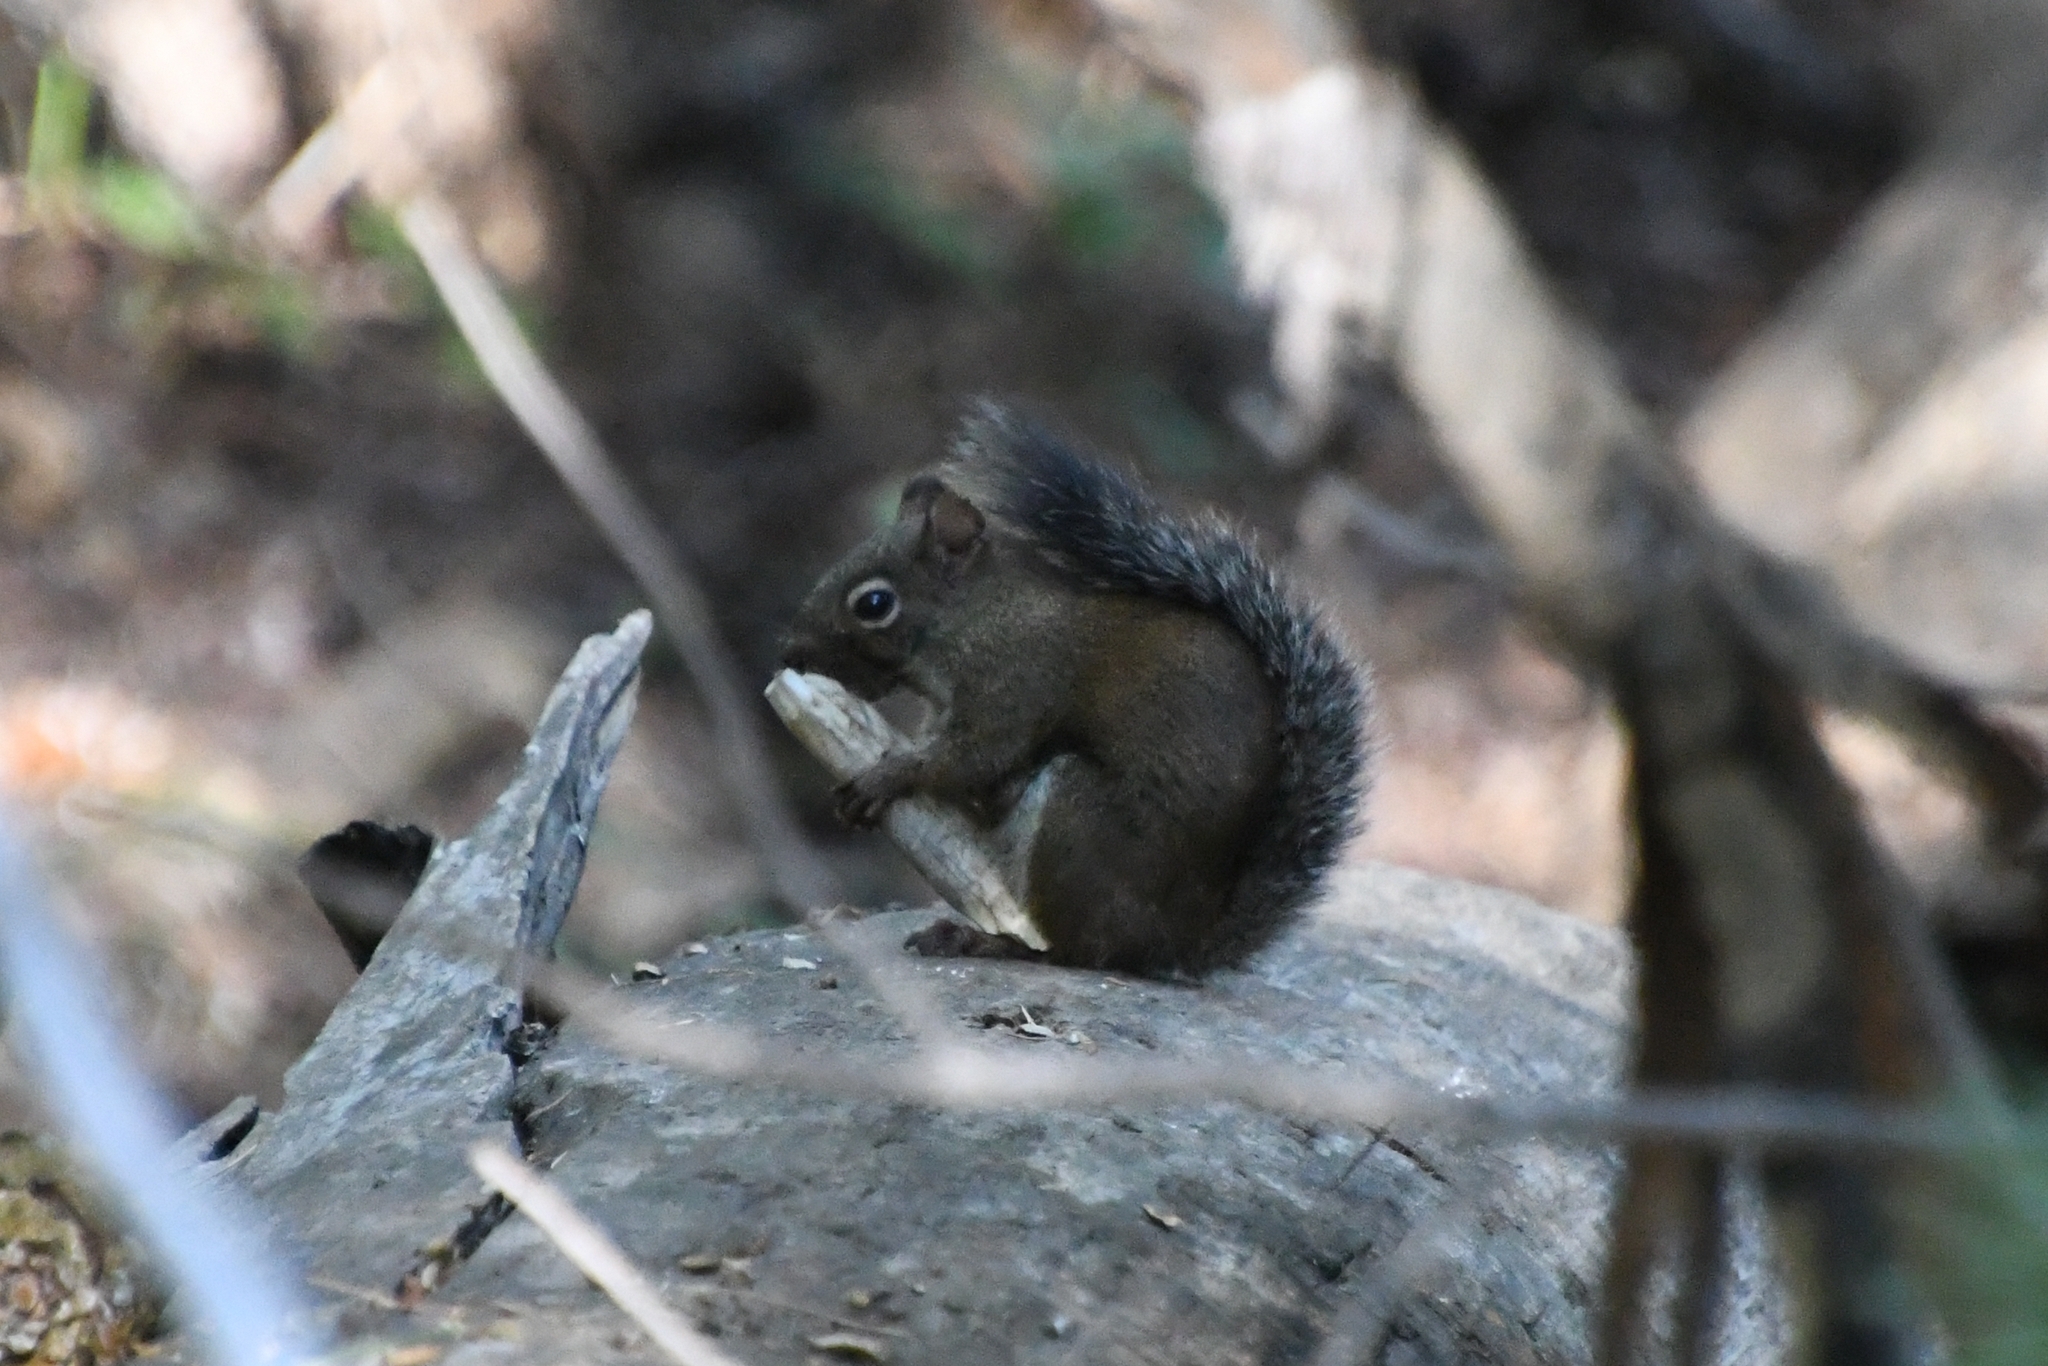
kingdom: Animalia
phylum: Chordata
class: Mammalia
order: Rodentia
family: Sciuridae
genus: Tamiasciurus
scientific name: Tamiasciurus hudsonicus
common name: Red squirrel
